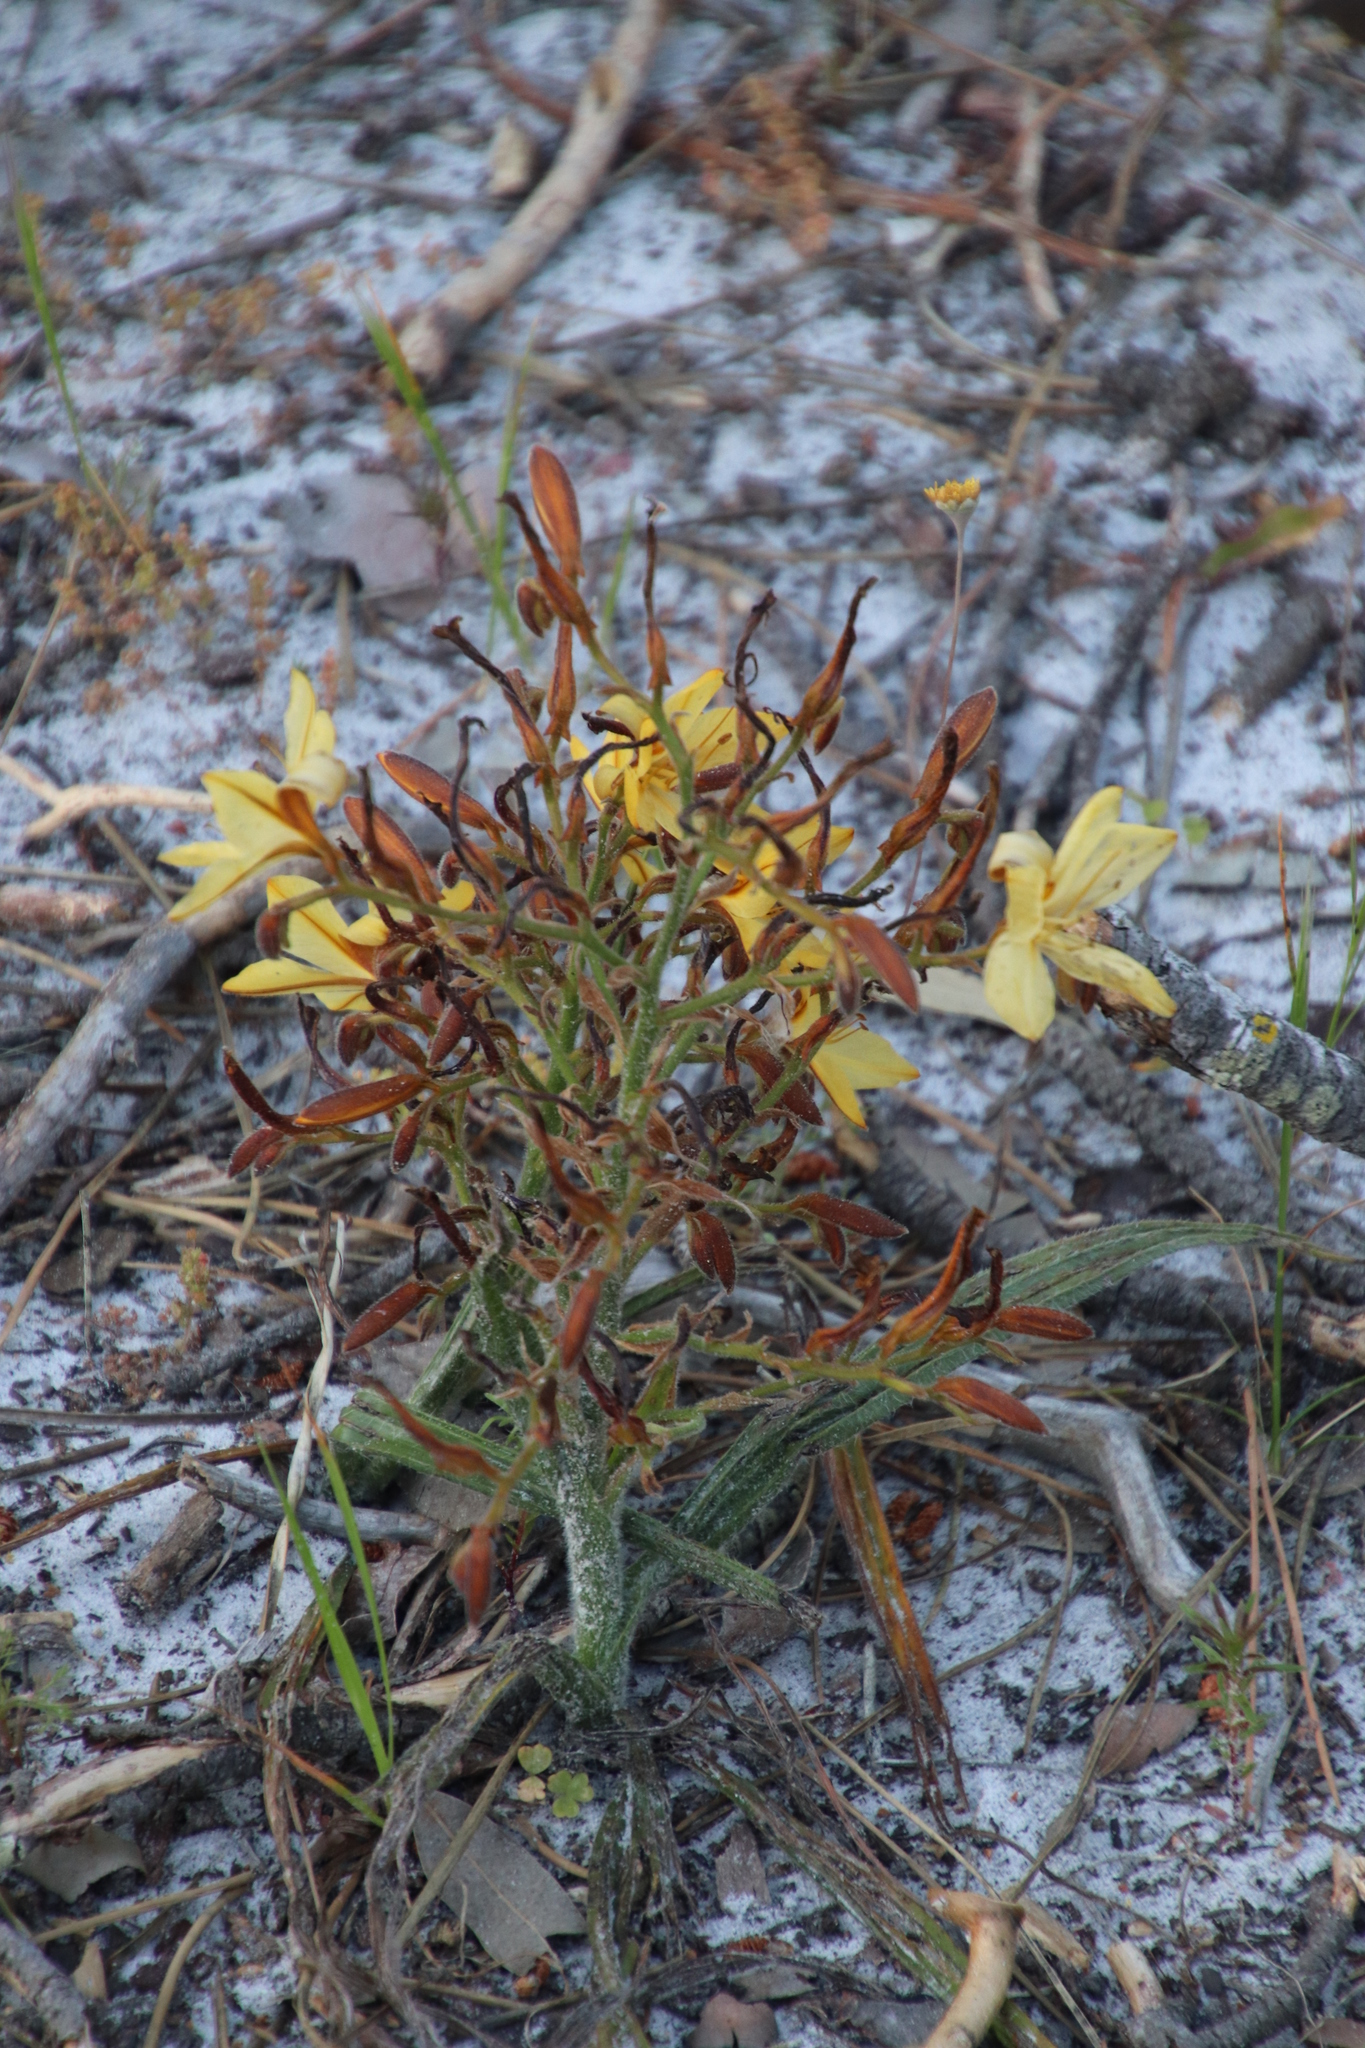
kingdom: Plantae
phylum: Tracheophyta
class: Liliopsida
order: Commelinales
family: Haemodoraceae
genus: Wachendorfia
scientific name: Wachendorfia paniculata
